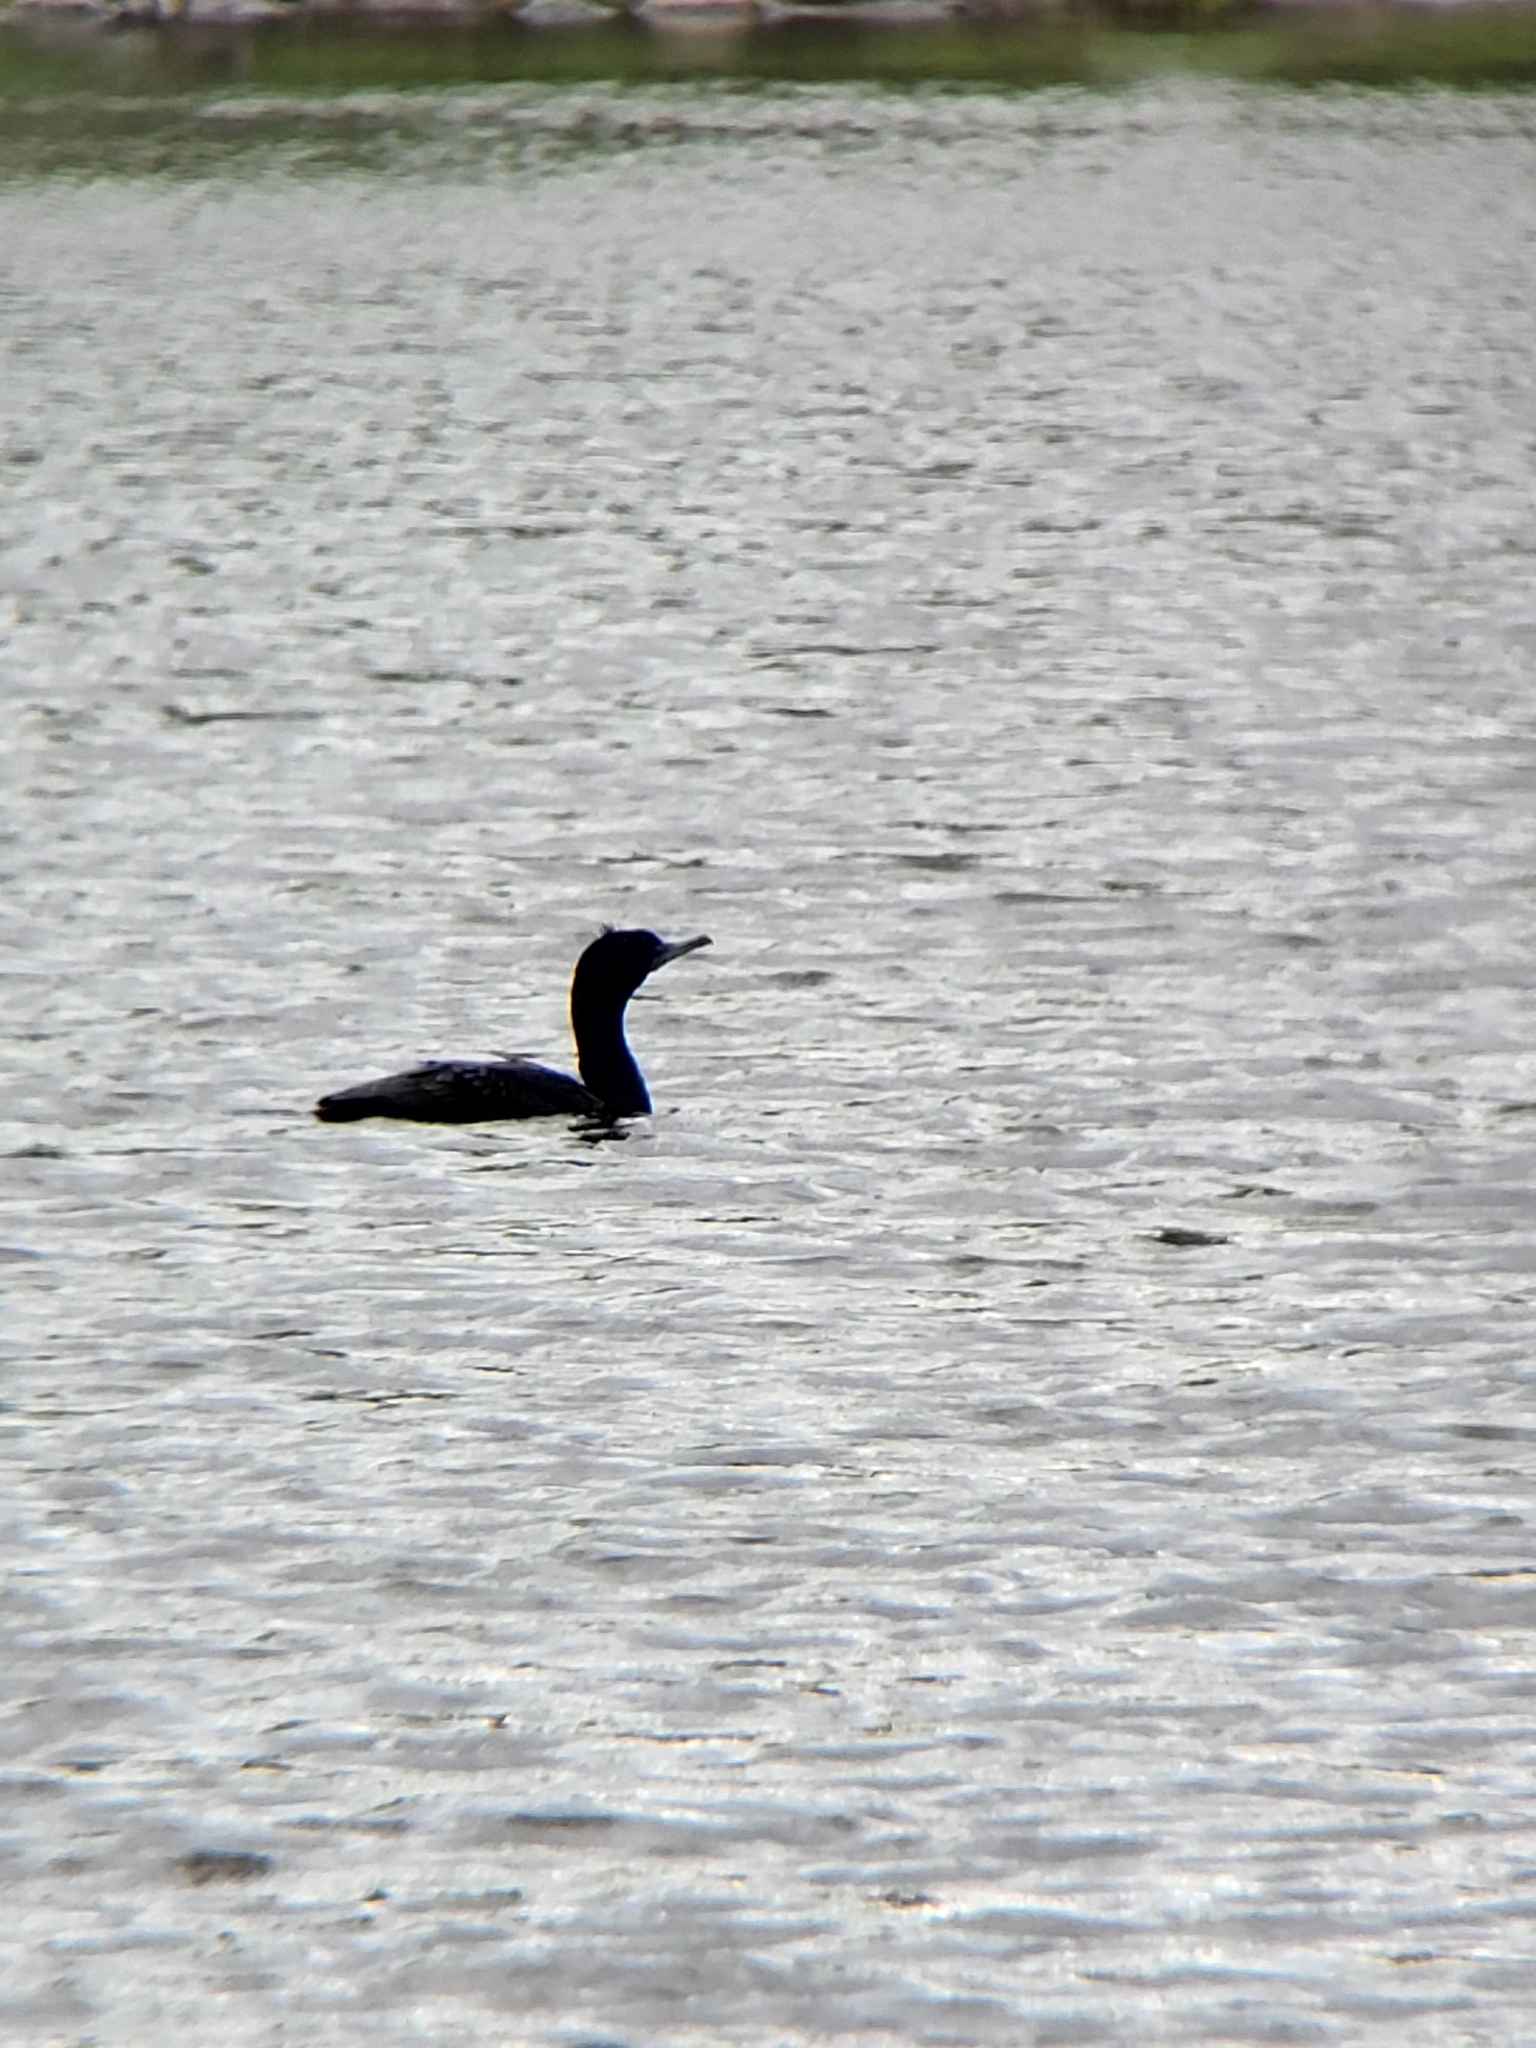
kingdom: Animalia
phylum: Chordata
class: Aves
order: Suliformes
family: Phalacrocoracidae
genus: Phalacrocorax
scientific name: Phalacrocorax auritus
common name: Double-crested cormorant
